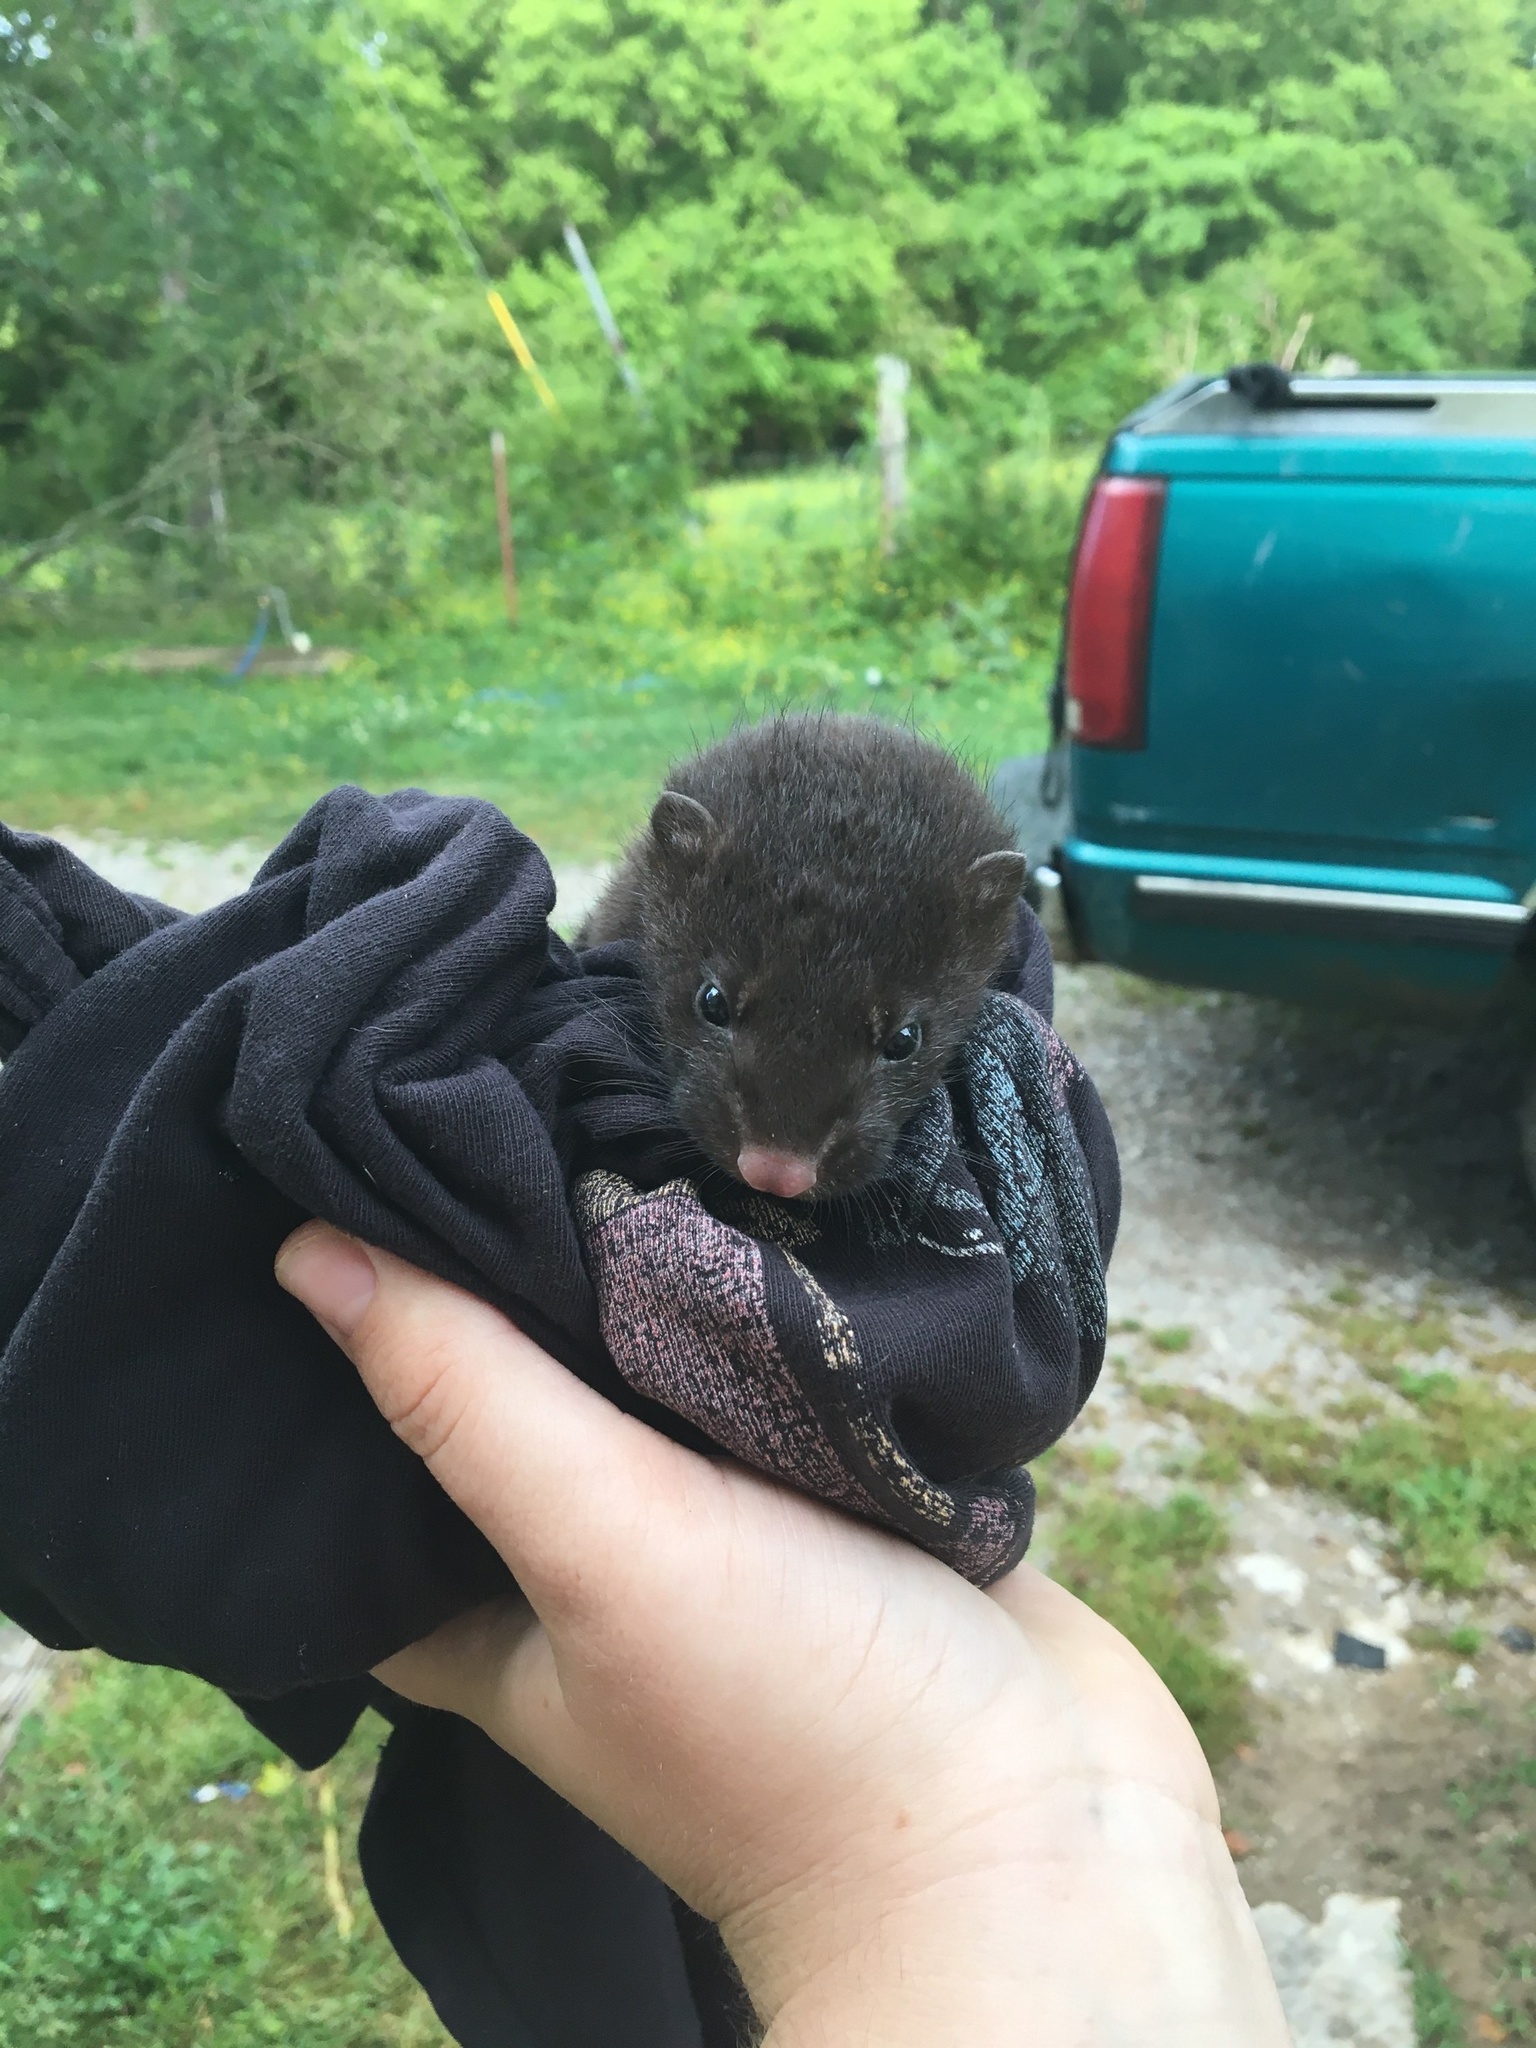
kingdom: Animalia
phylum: Chordata
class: Mammalia
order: Carnivora
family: Mustelidae
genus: Mustela
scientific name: Mustela
